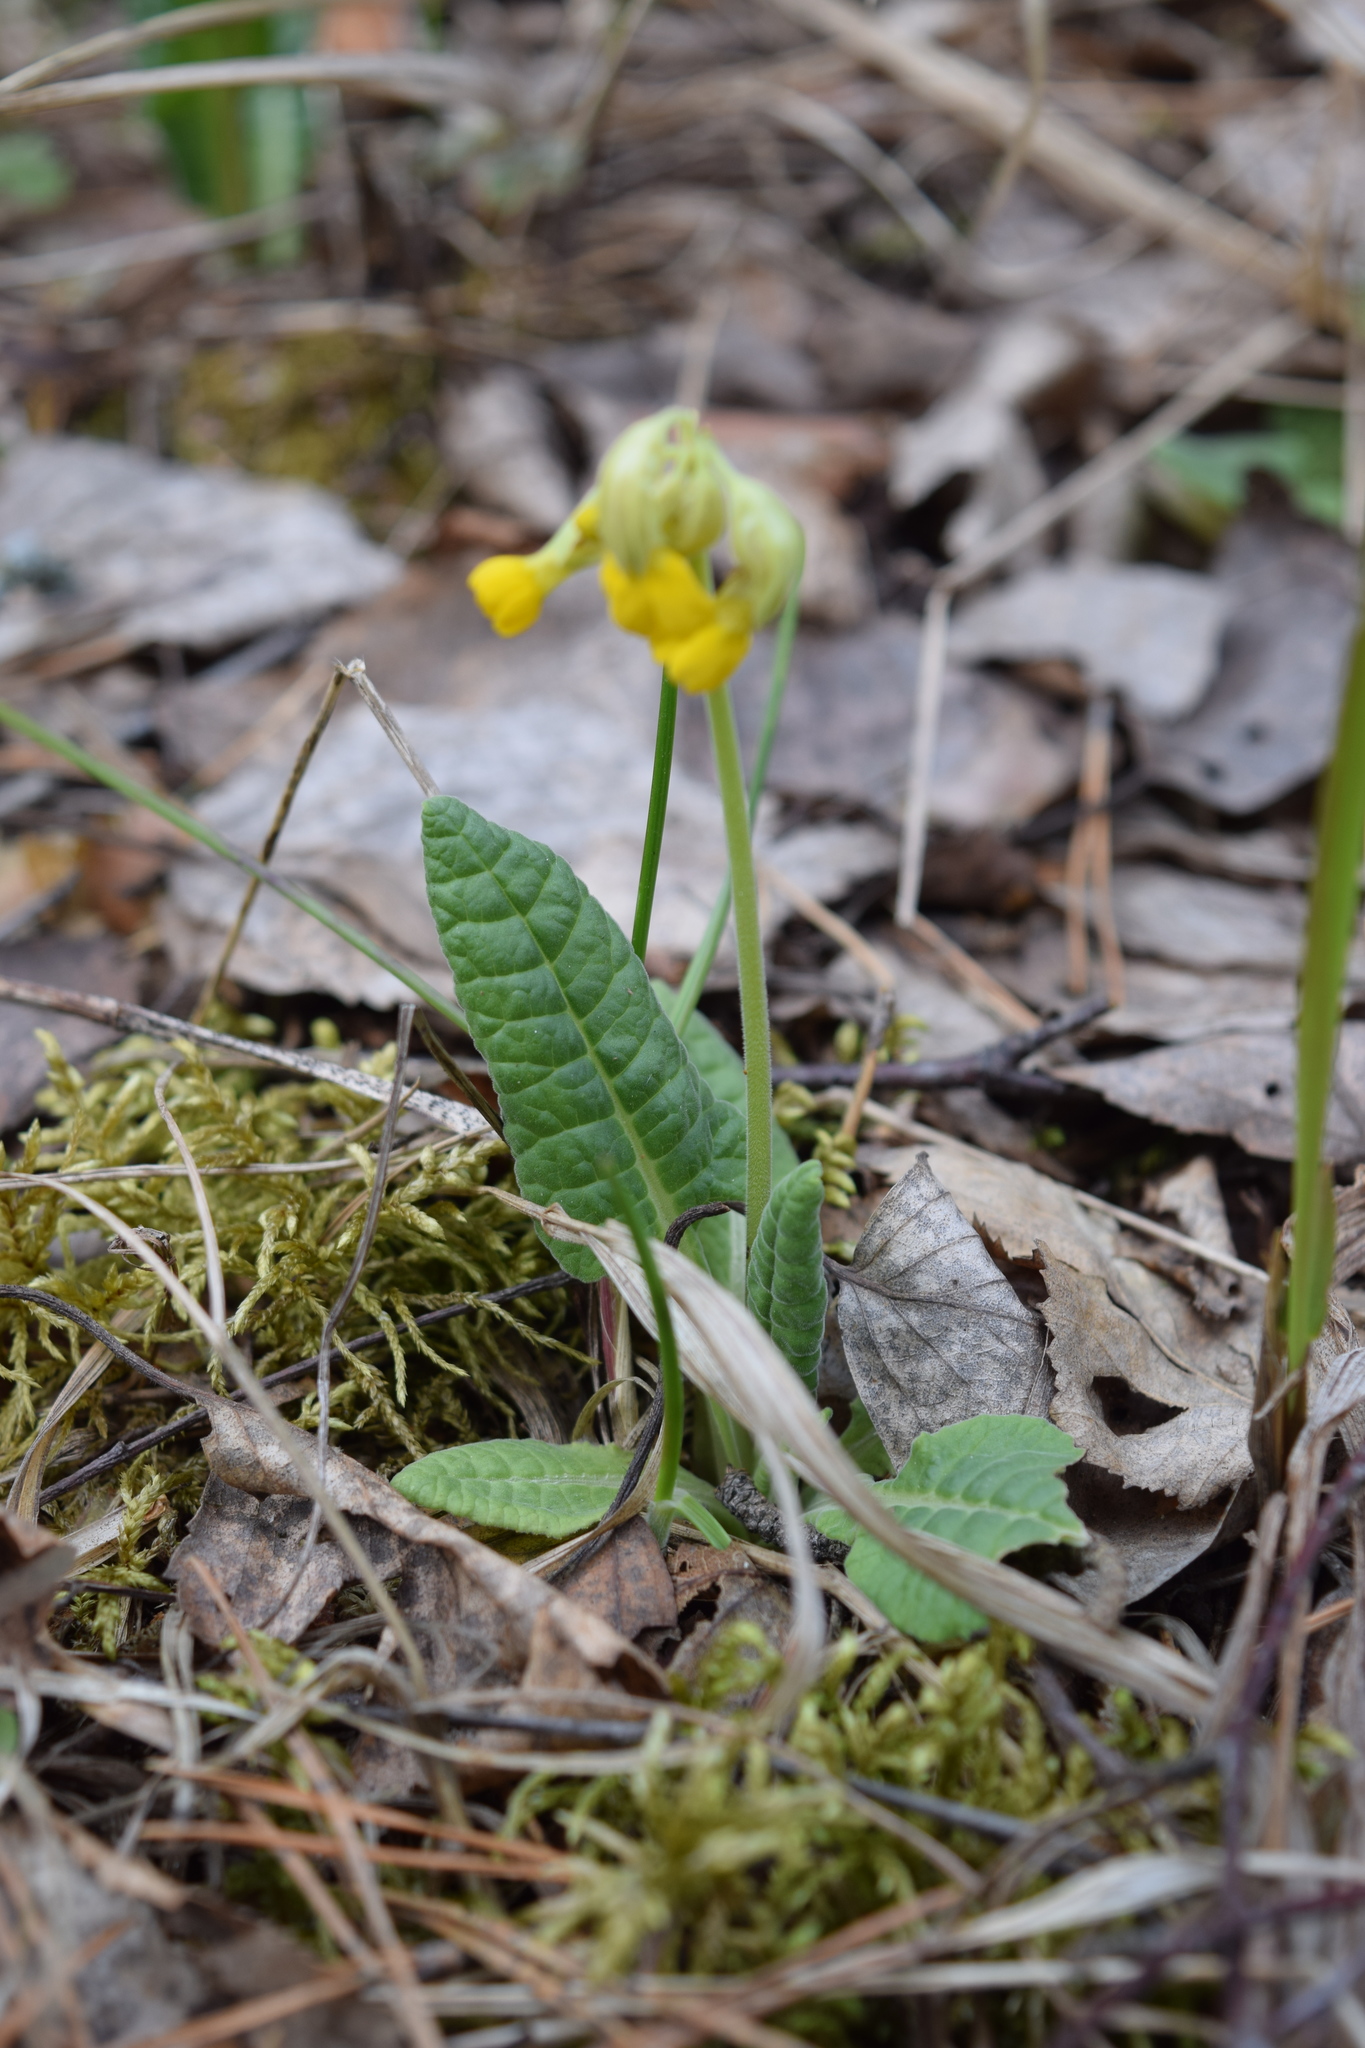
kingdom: Plantae
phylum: Tracheophyta
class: Magnoliopsida
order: Ericales
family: Primulaceae
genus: Primula
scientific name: Primula veris
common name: Cowslip
